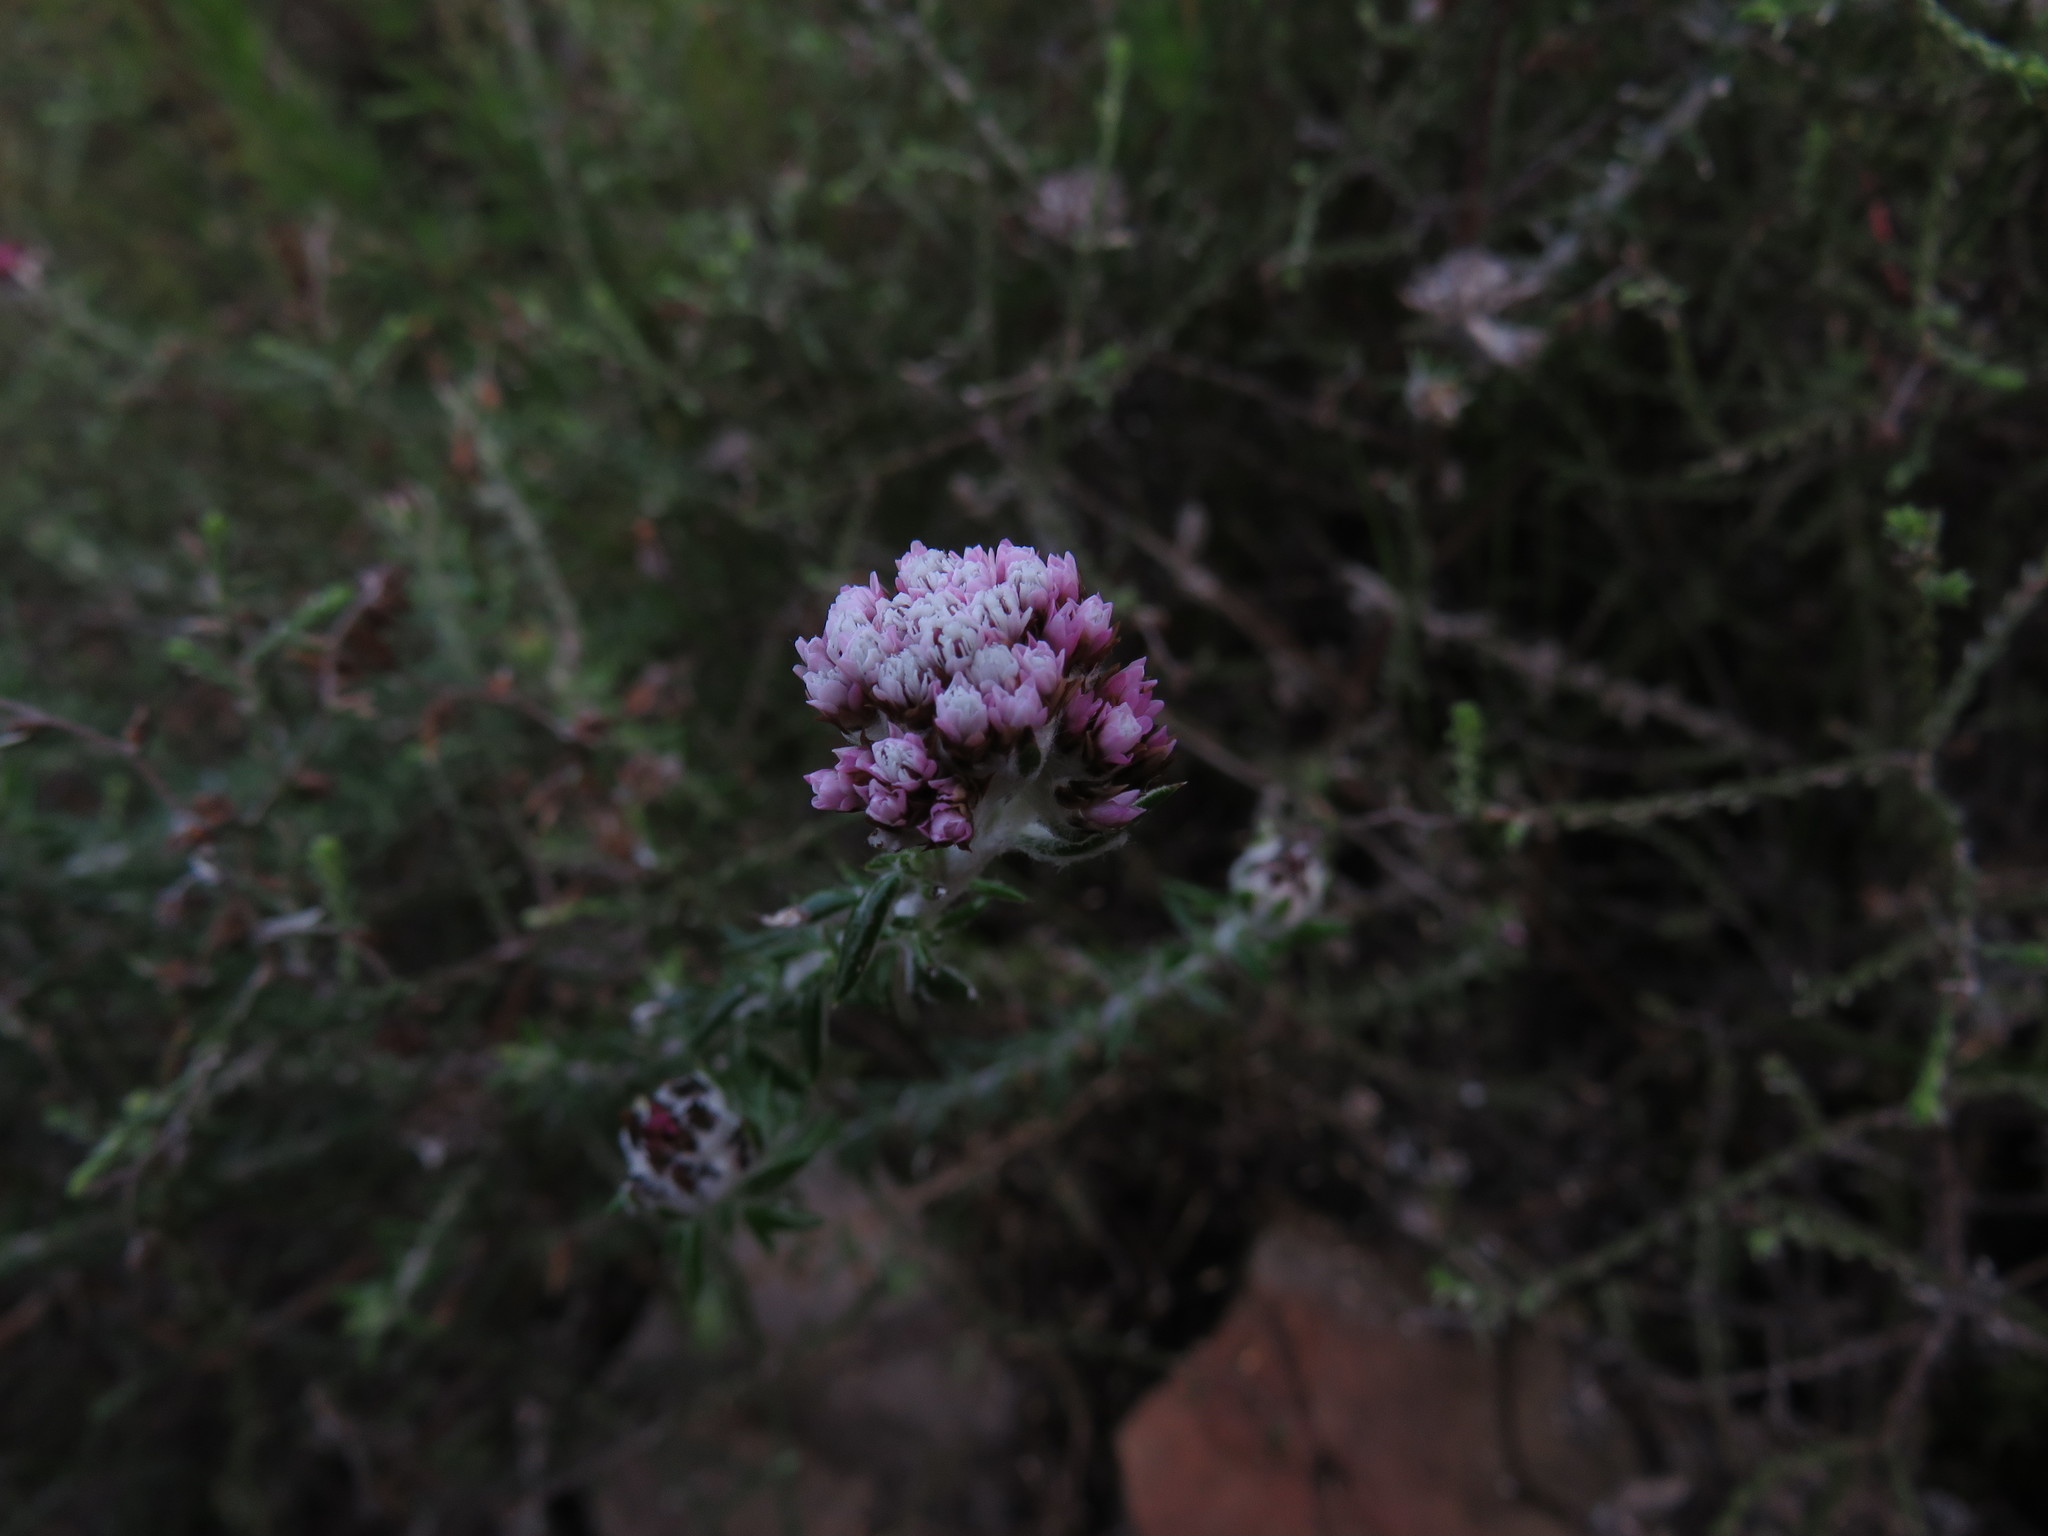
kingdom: Plantae
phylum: Tracheophyta
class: Magnoliopsida
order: Asterales
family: Asteraceae
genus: Metalasia
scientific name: Metalasia divergens
